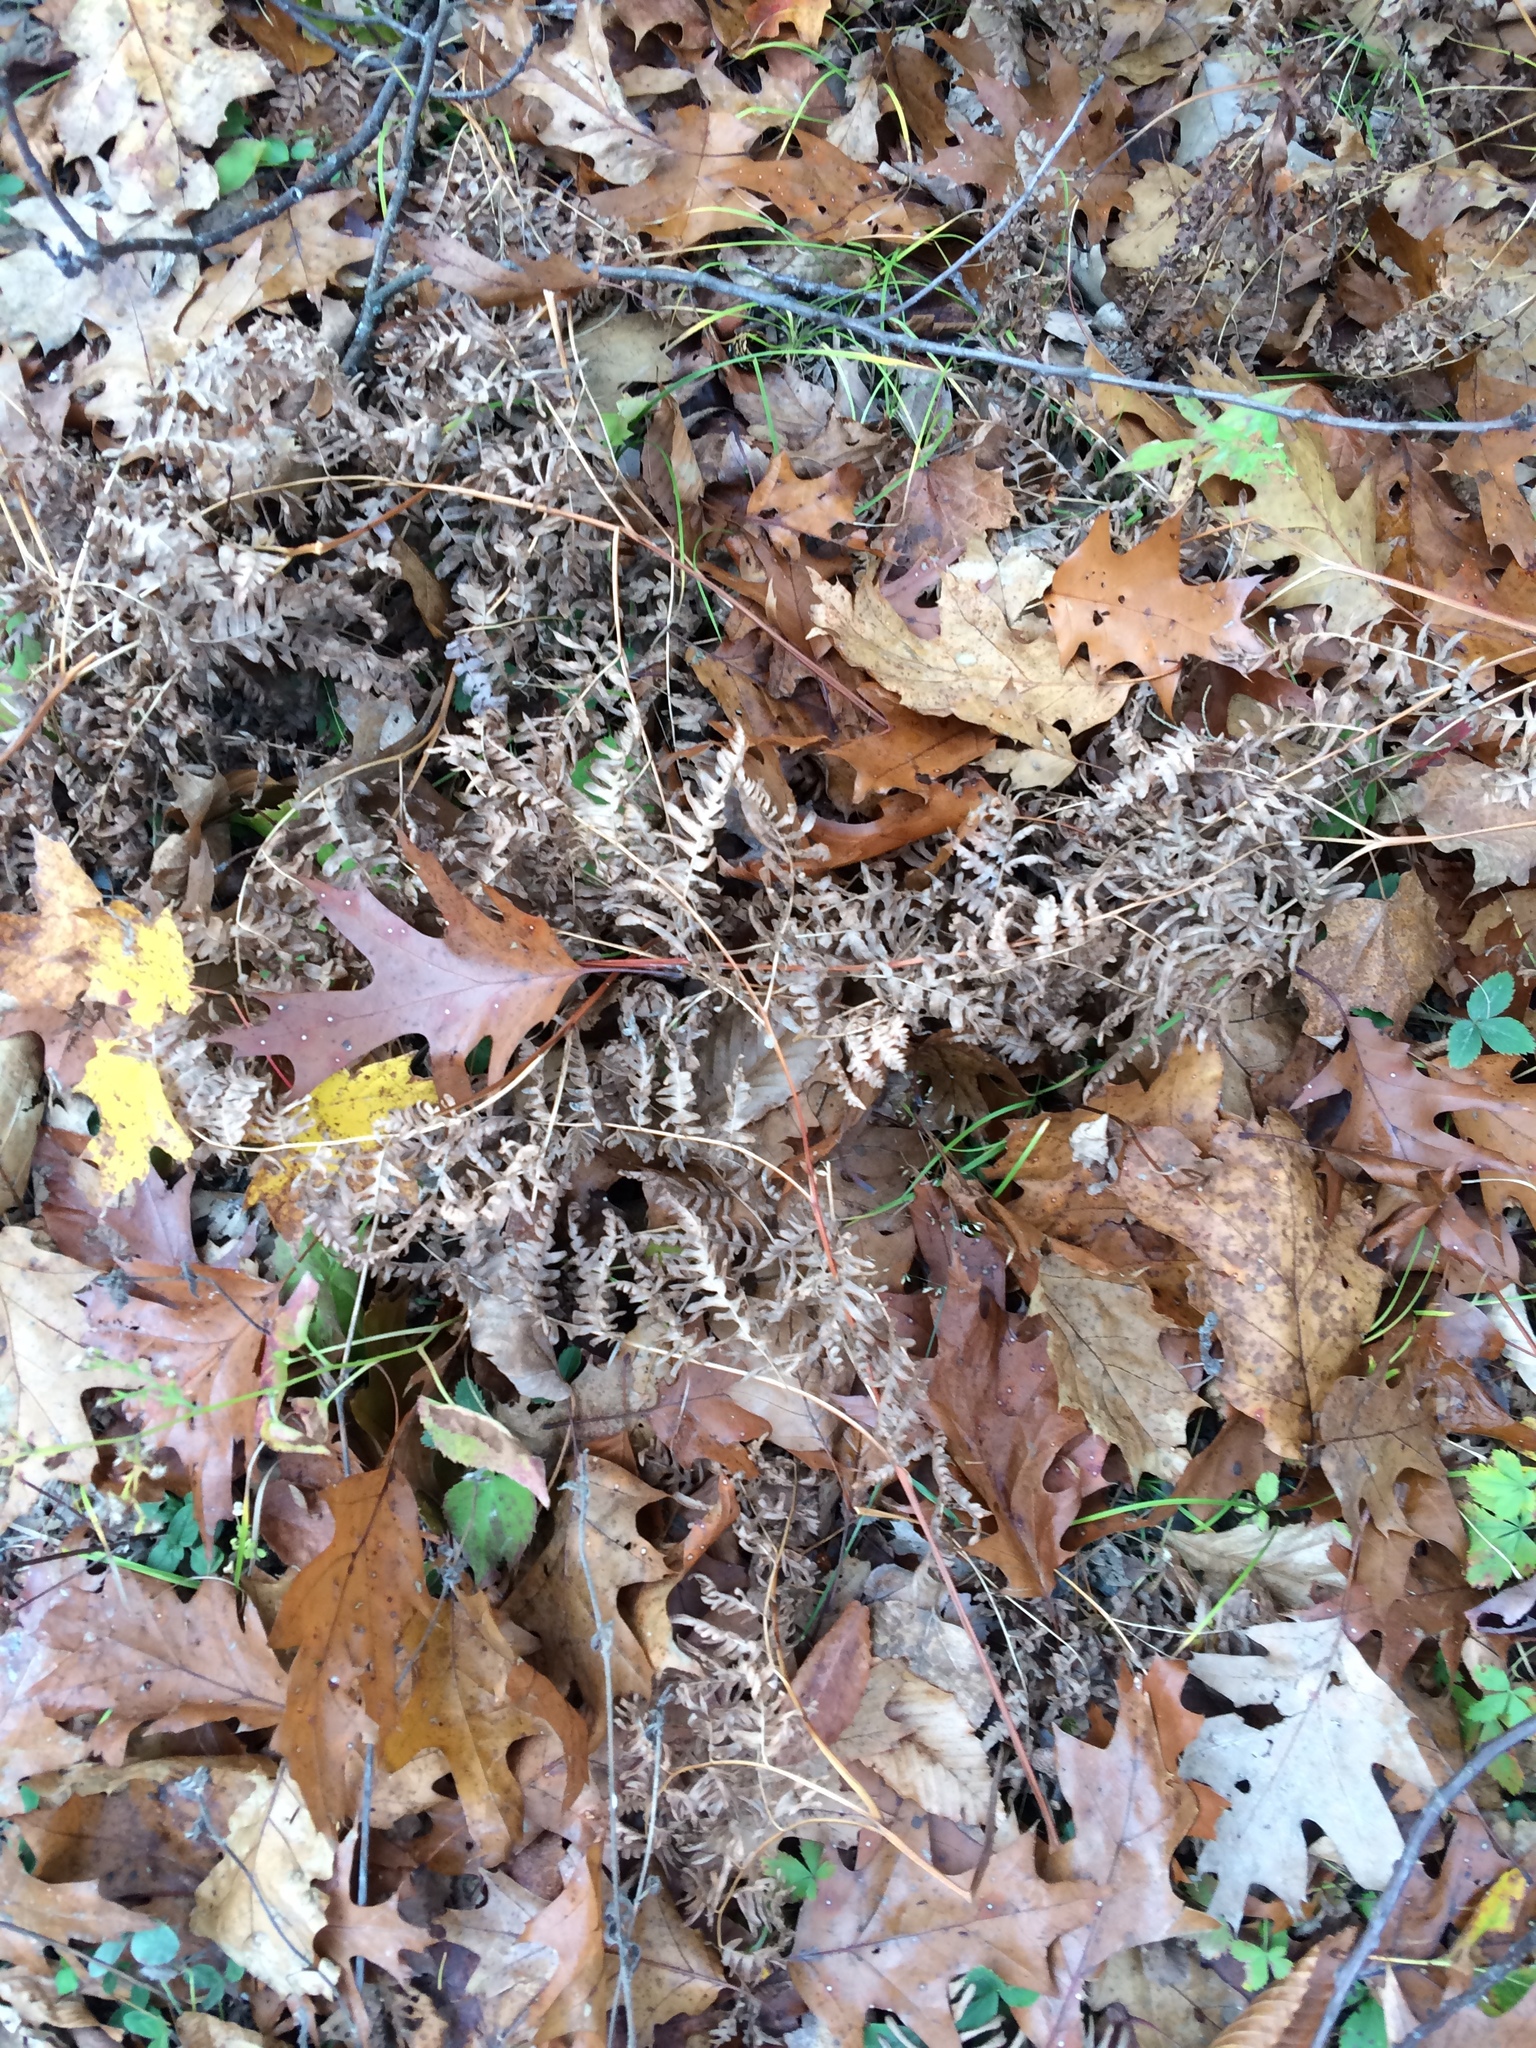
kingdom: Plantae
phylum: Tracheophyta
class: Polypodiopsida
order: Polypodiales
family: Dennstaedtiaceae
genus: Pteridium
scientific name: Pteridium aquilinum
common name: Bracken
